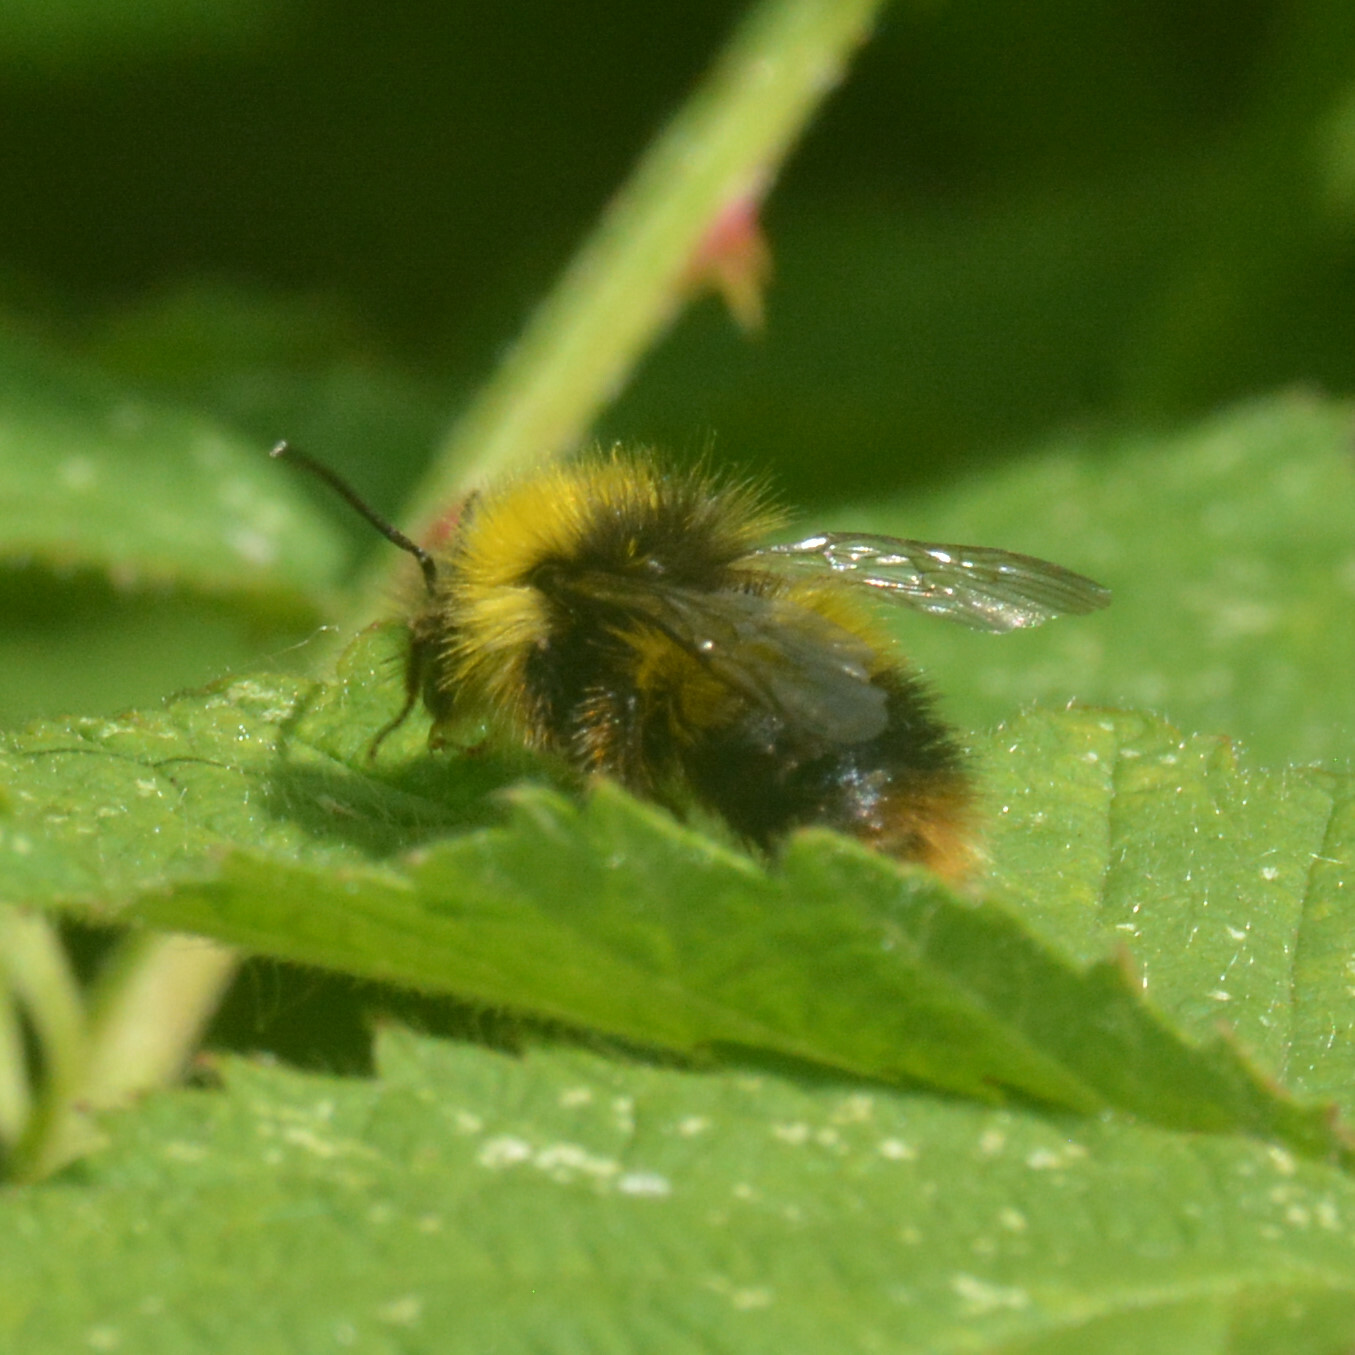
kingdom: Animalia
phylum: Arthropoda
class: Insecta
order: Hymenoptera
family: Apidae
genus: Bombus
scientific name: Bombus pratorum
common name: Early humble-bee
